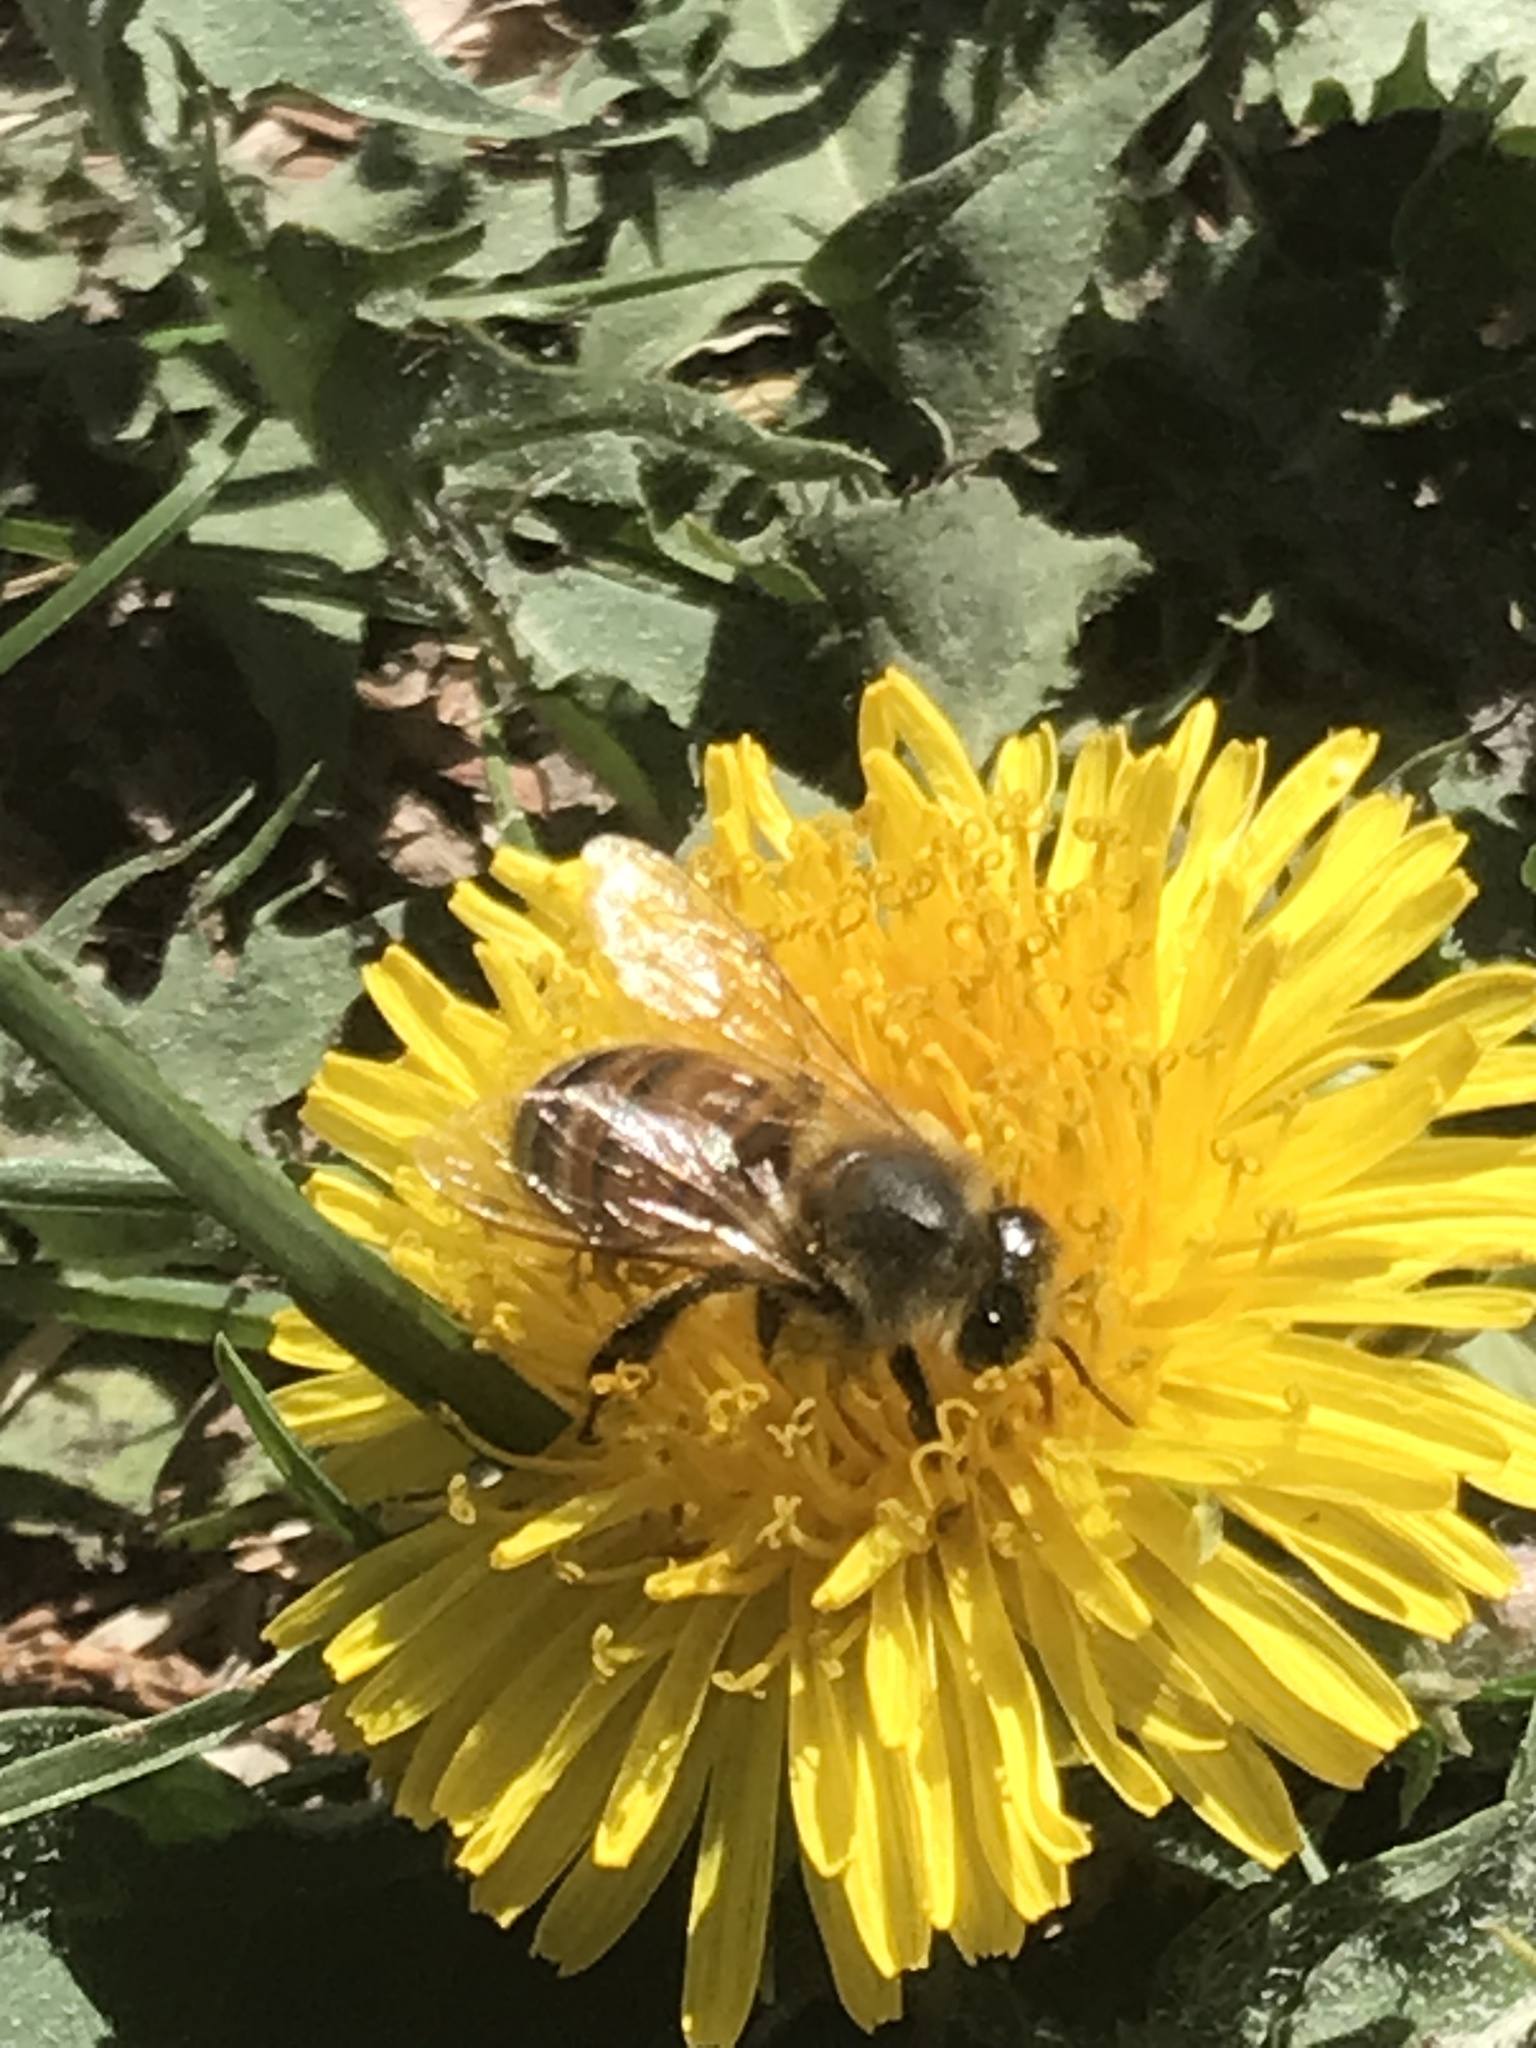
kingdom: Animalia
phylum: Arthropoda
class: Insecta
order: Hymenoptera
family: Apidae
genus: Apis
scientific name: Apis mellifera
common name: Honey bee
